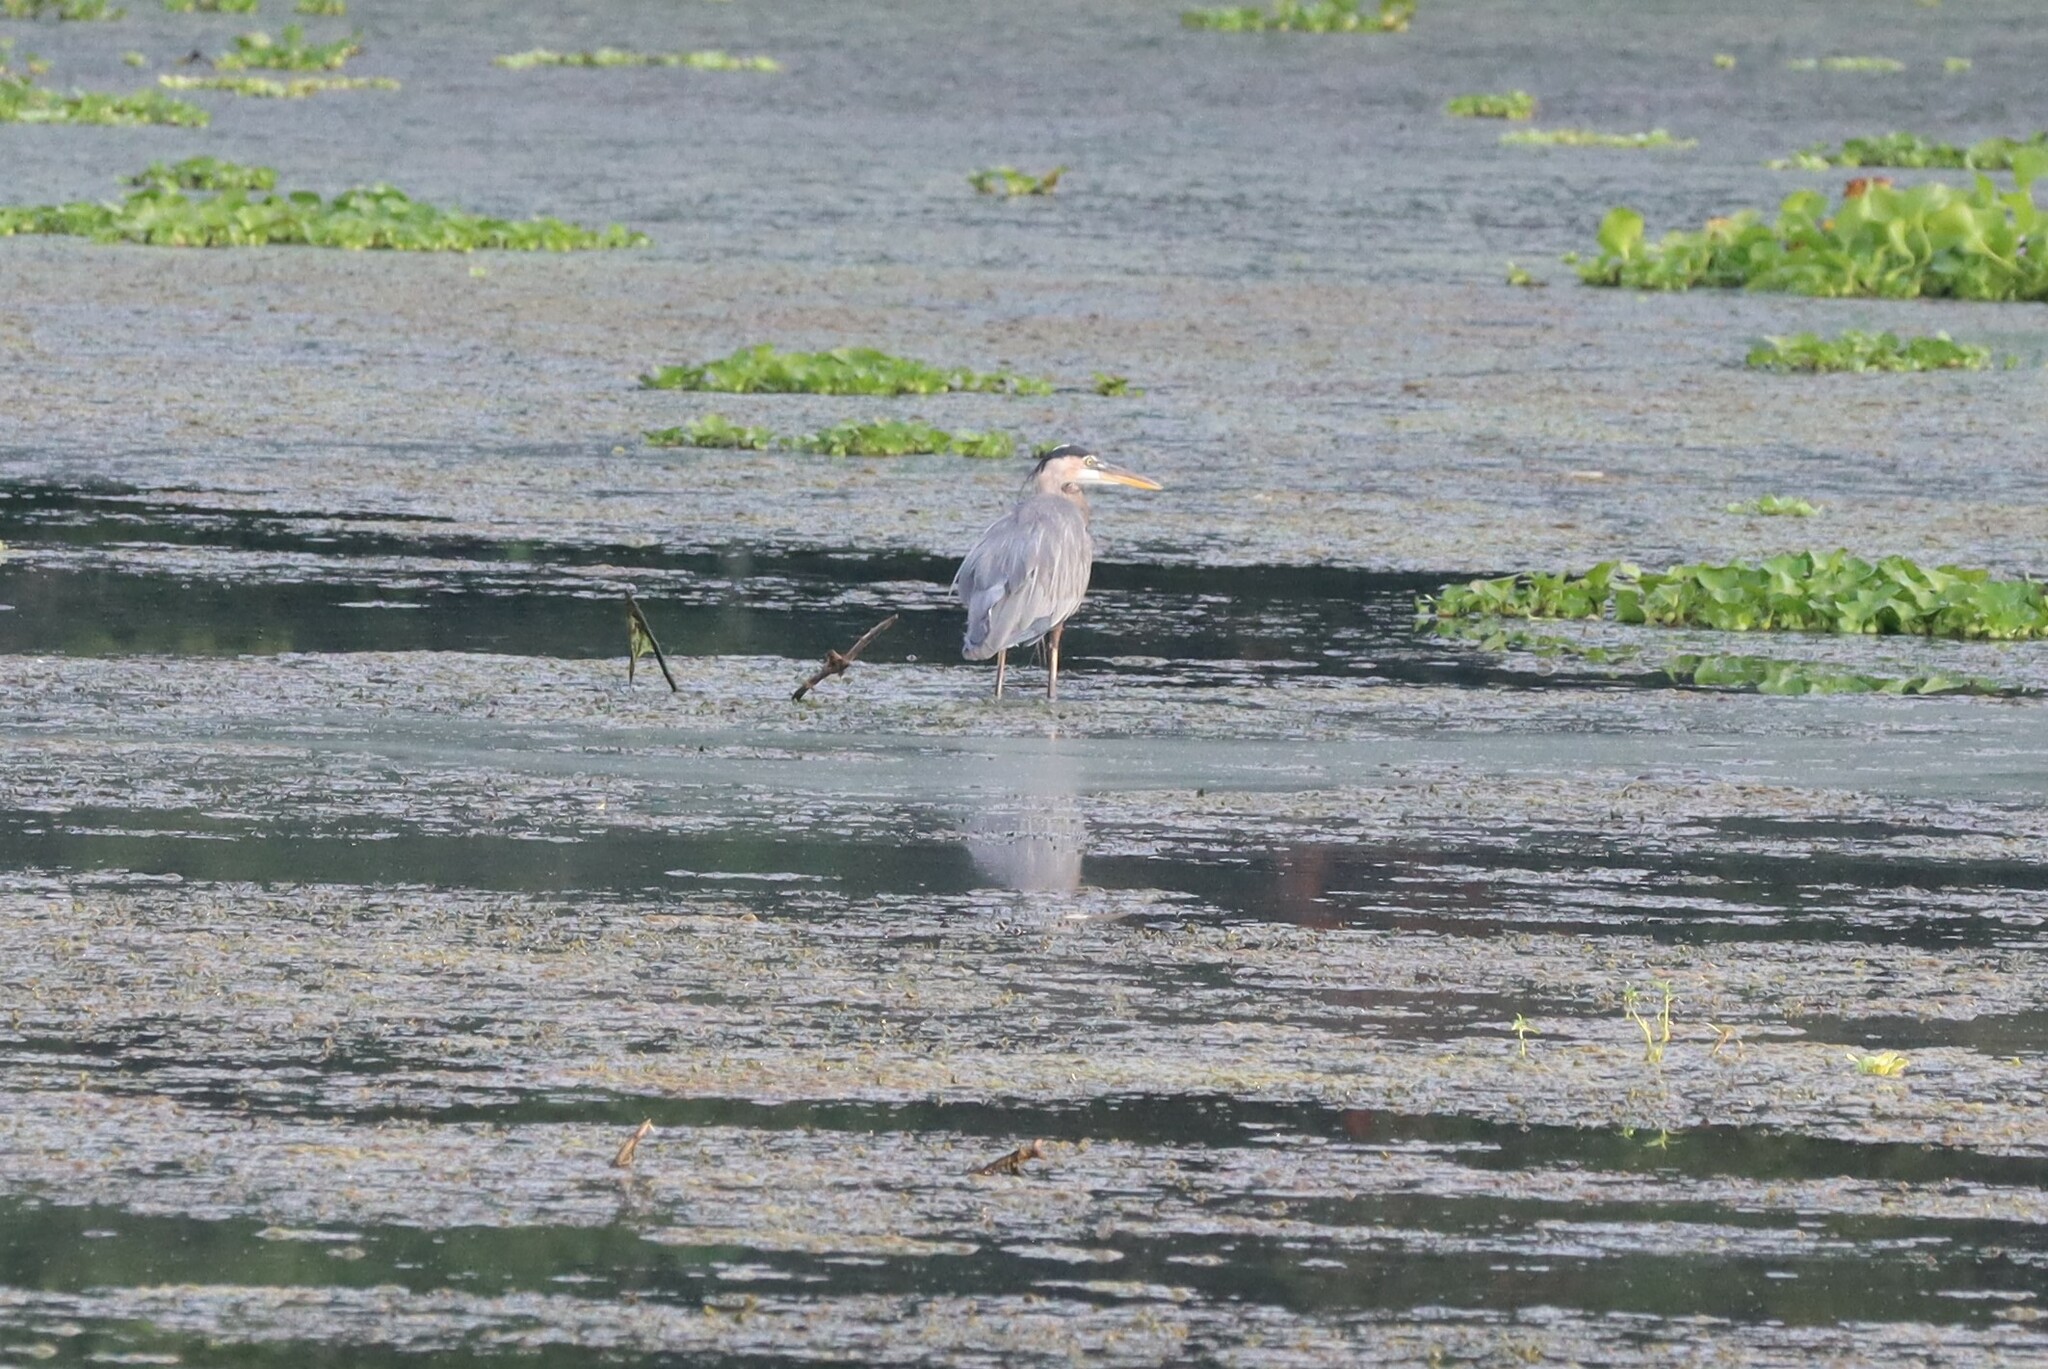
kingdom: Animalia
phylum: Chordata
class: Aves
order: Pelecaniformes
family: Ardeidae
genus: Ardea
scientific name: Ardea herodias
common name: Great blue heron
